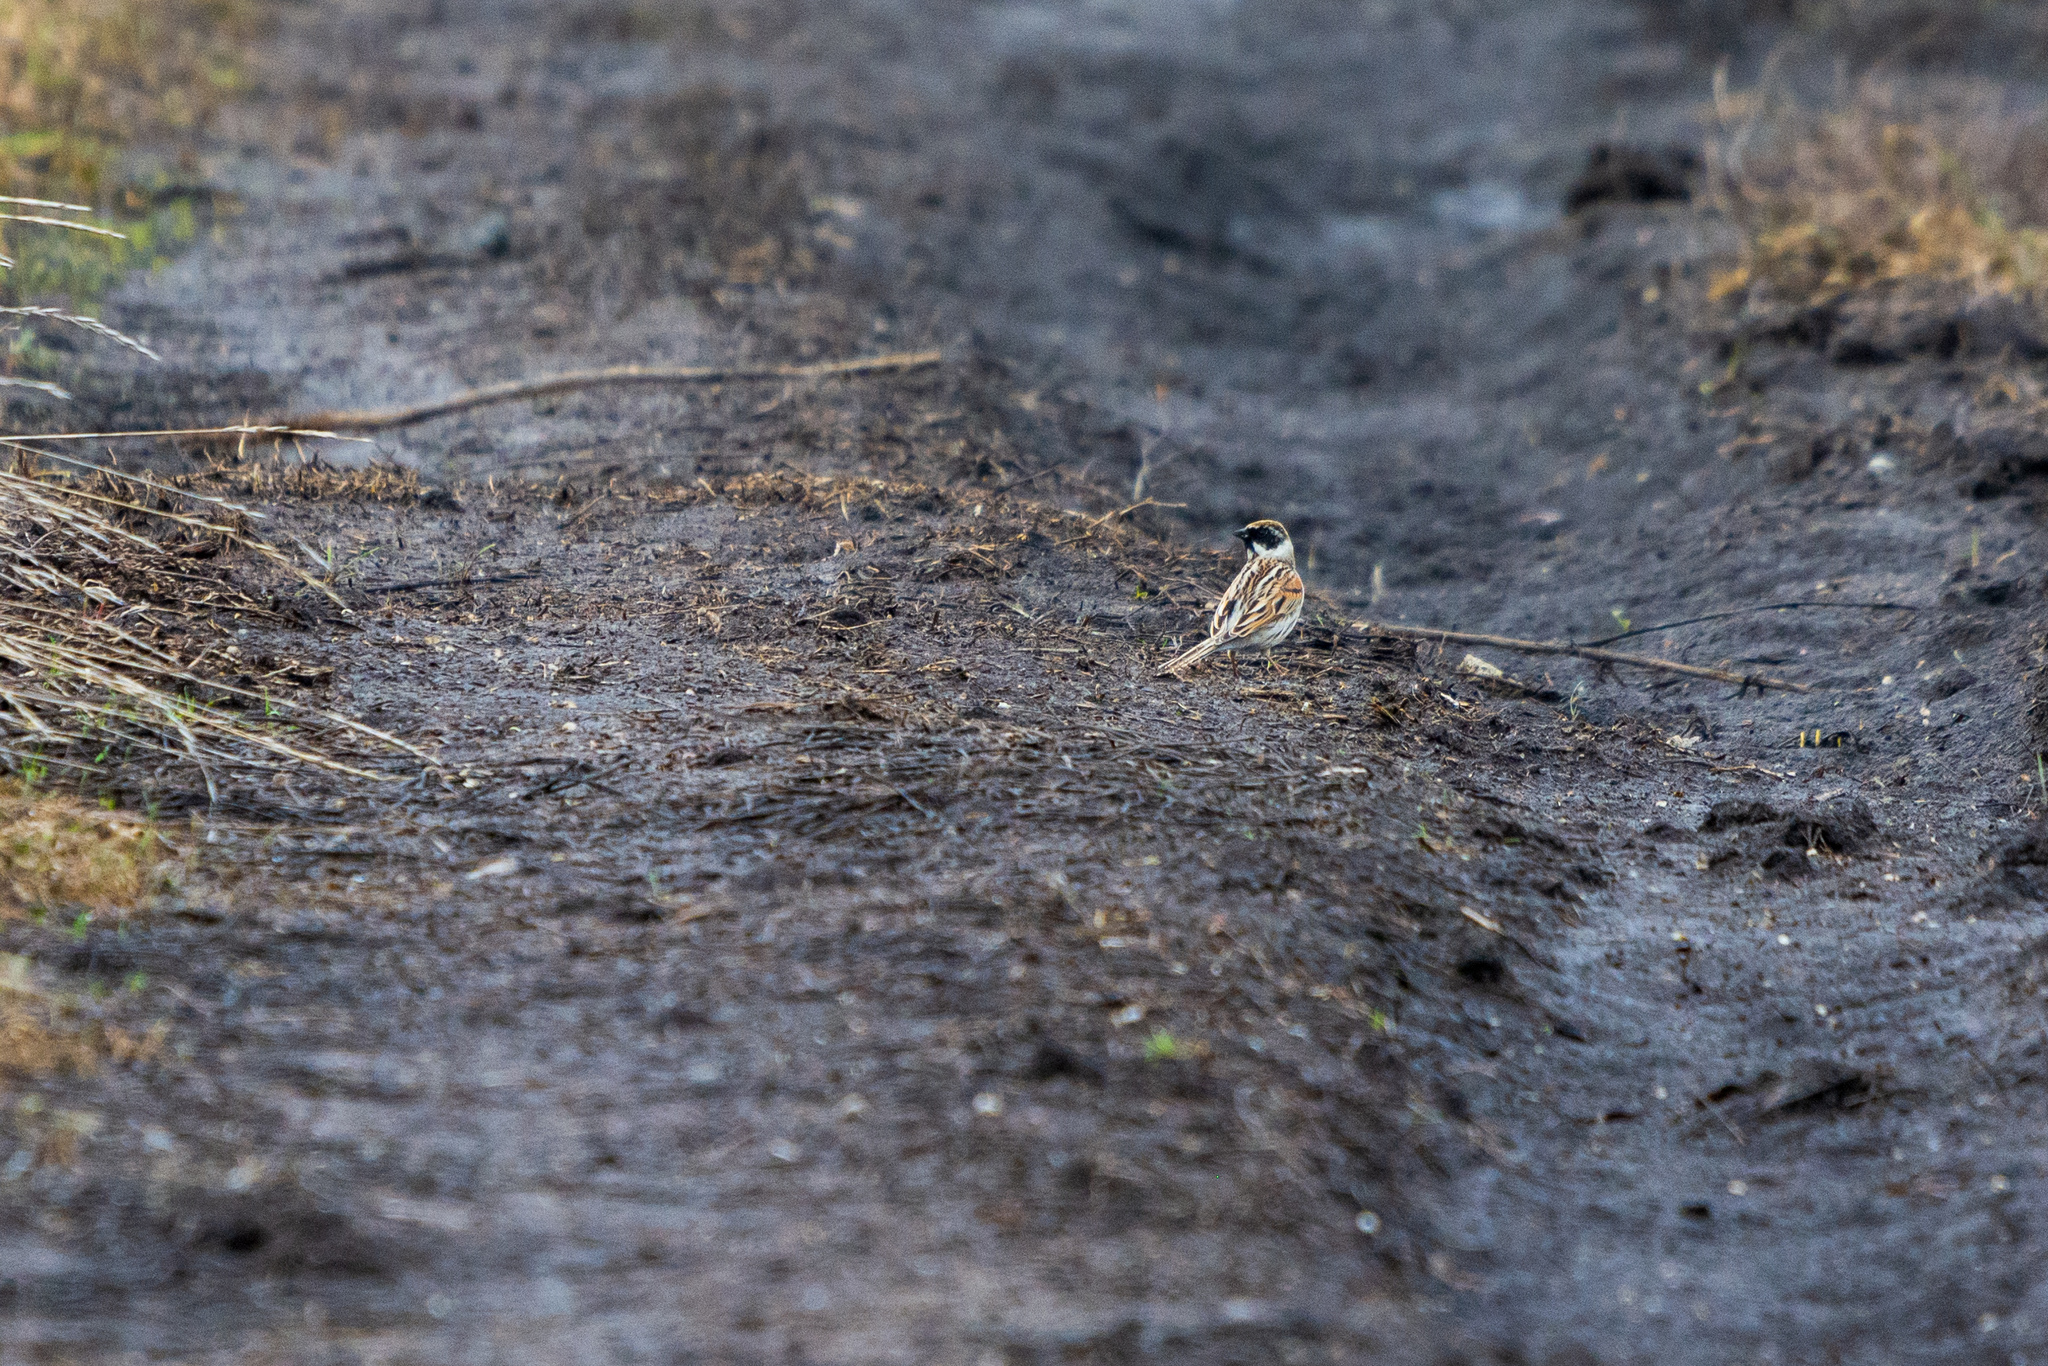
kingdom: Animalia
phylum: Chordata
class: Aves
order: Passeriformes
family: Emberizidae
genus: Emberiza
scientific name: Emberiza schoeniclus
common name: Reed bunting
